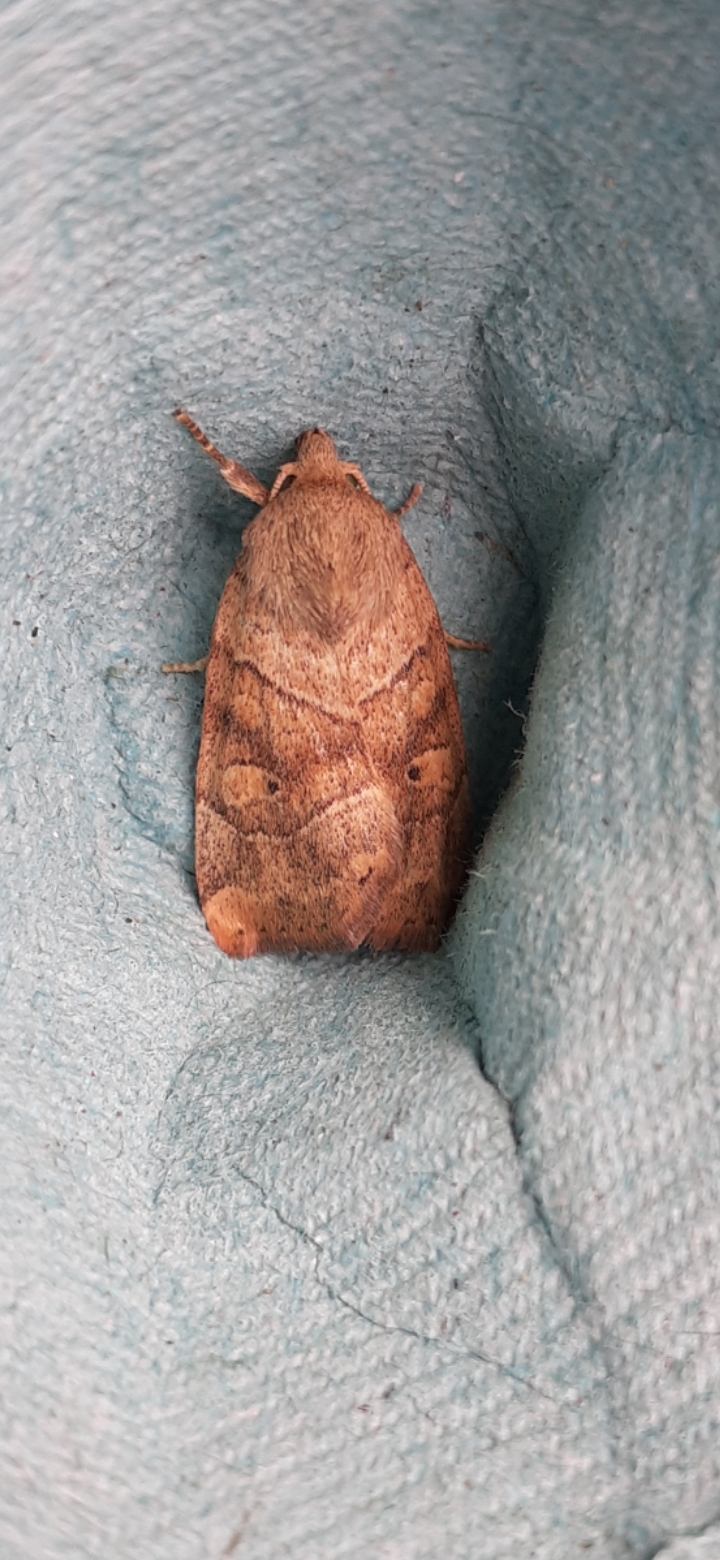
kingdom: Animalia
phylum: Arthropoda
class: Insecta
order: Lepidoptera
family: Noctuidae
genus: Cosmia
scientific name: Cosmia trapezina
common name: Dun-bar
